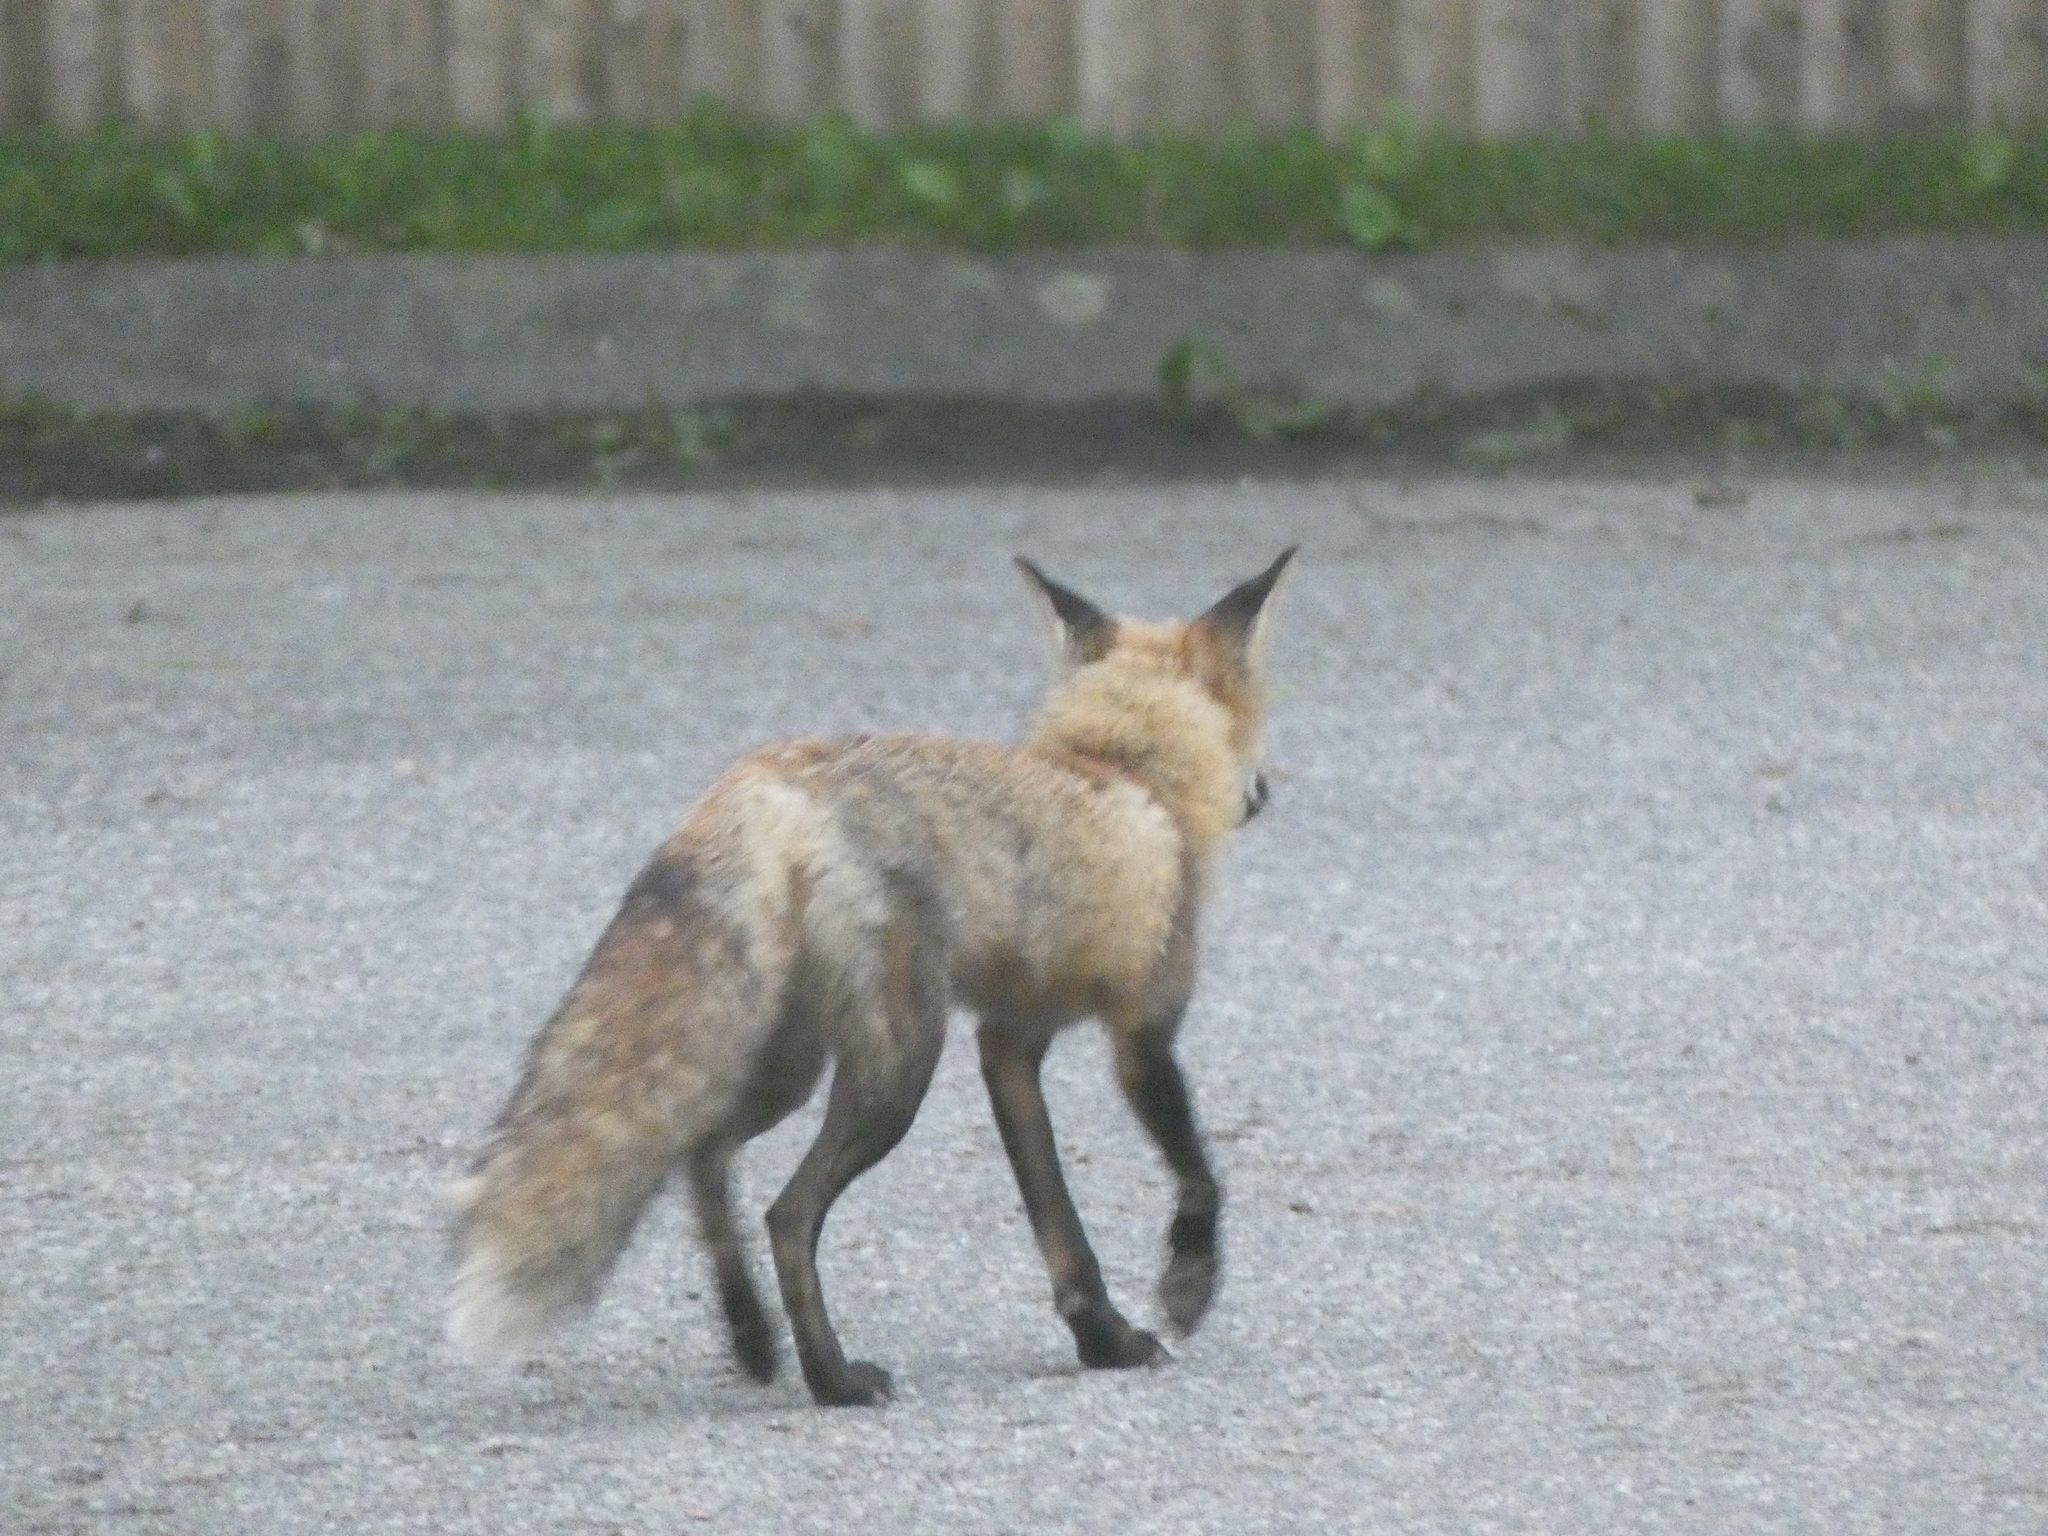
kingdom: Animalia
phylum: Chordata
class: Mammalia
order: Carnivora
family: Canidae
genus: Vulpes
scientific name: Vulpes vulpes
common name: Red fox
